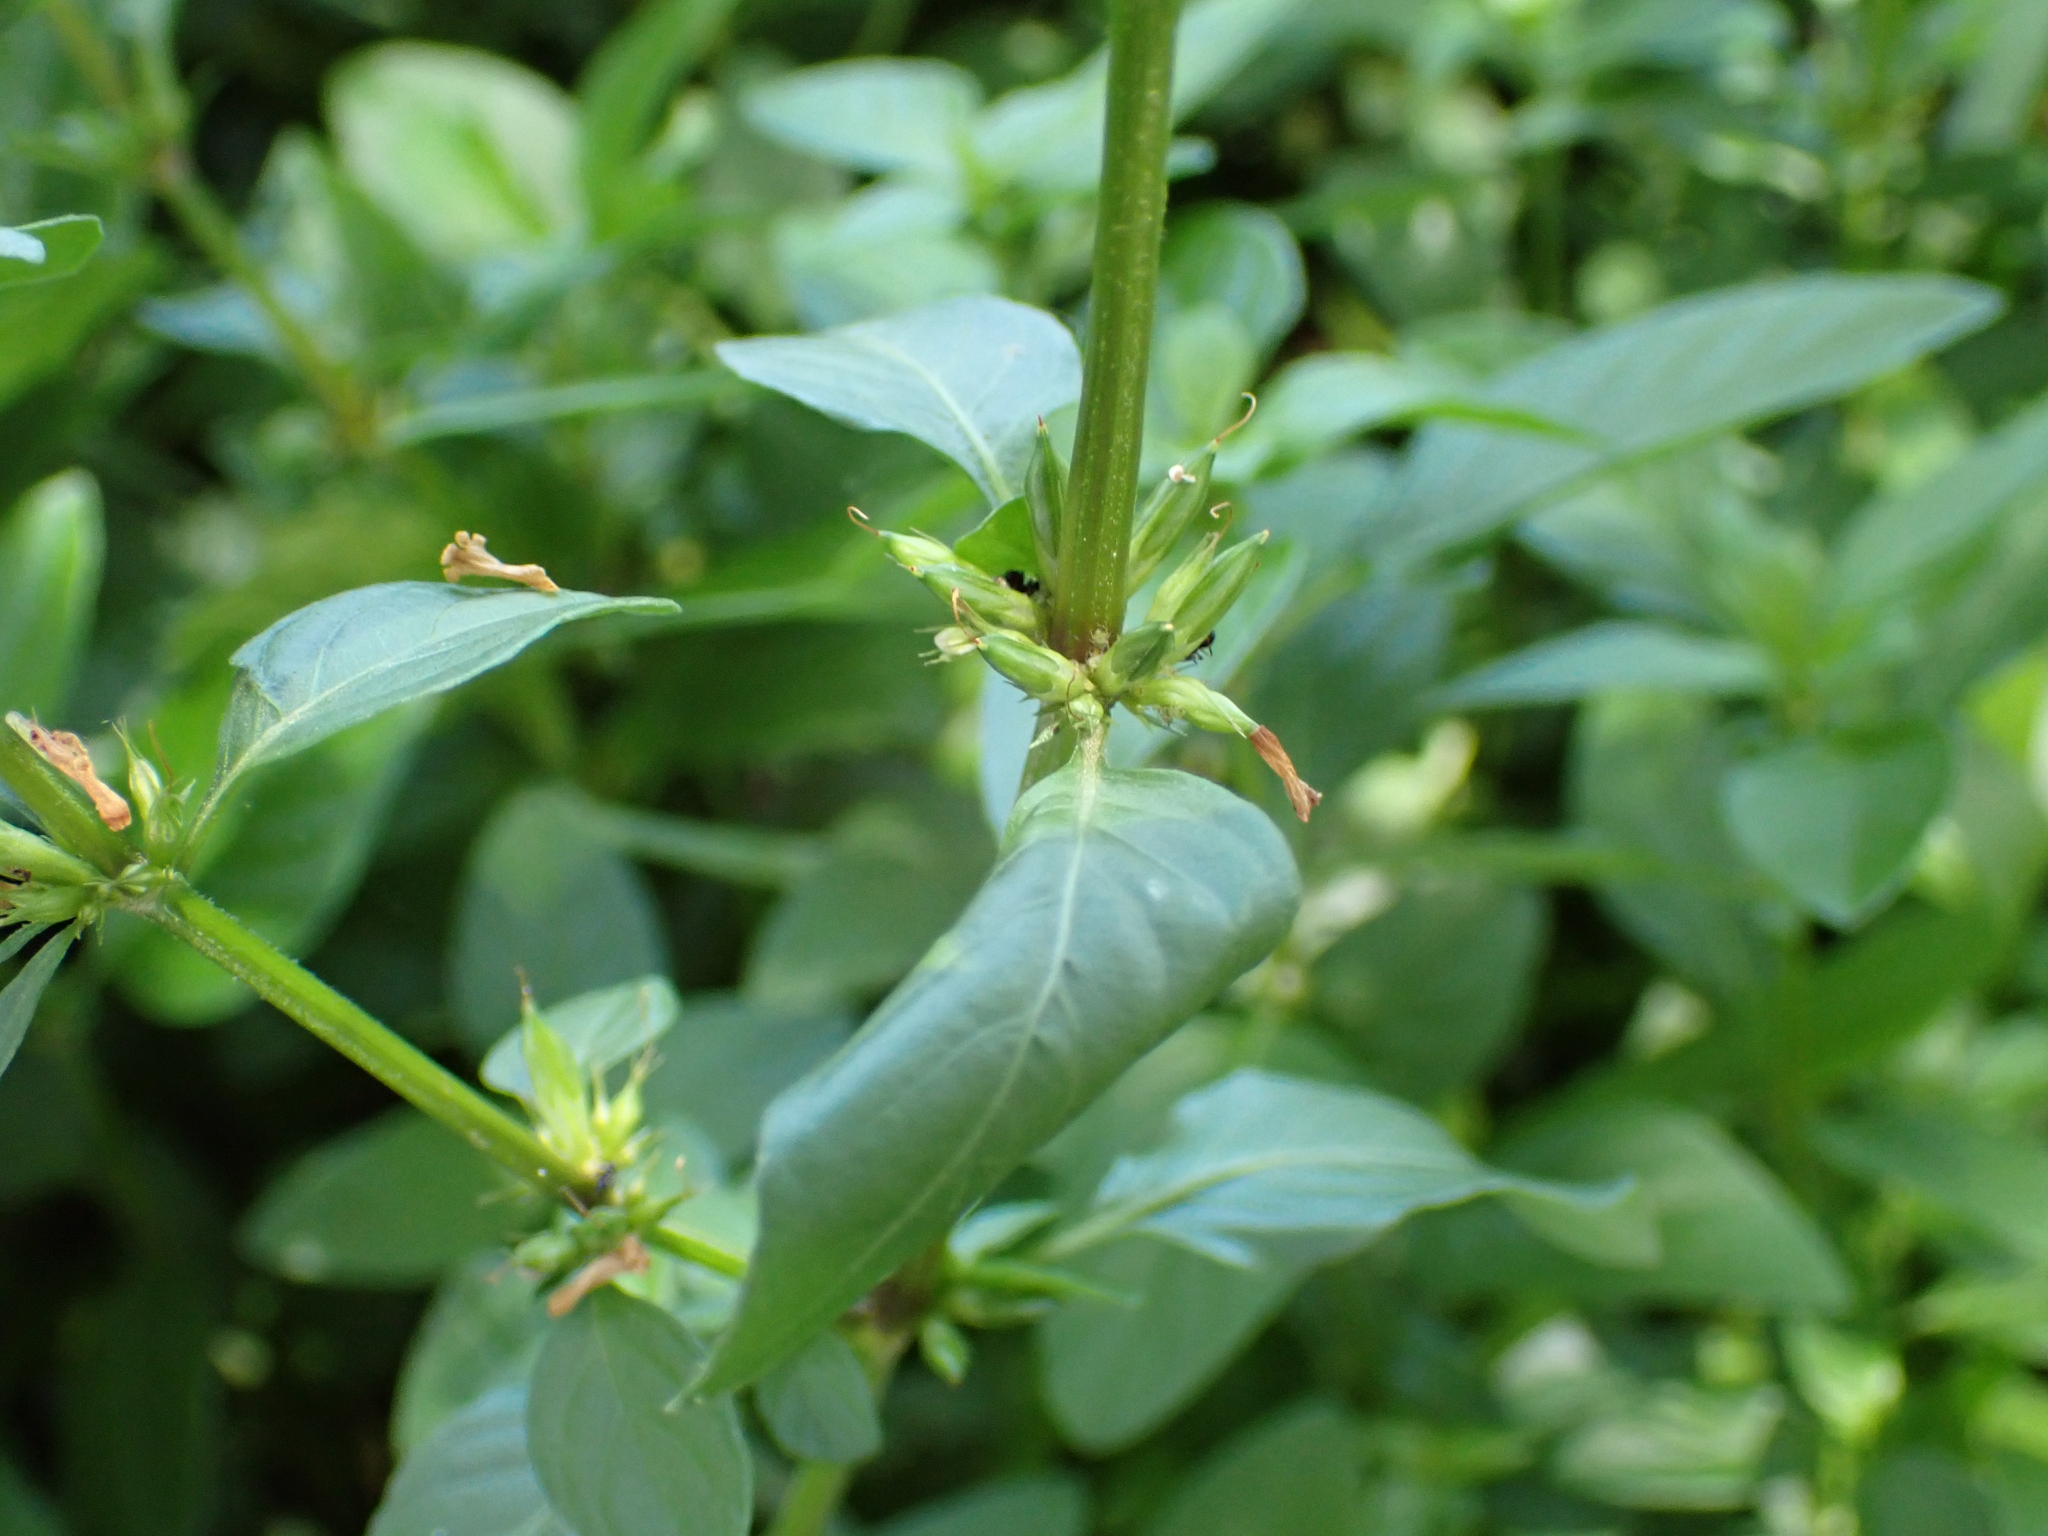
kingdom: Plantae
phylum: Tracheophyta
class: Magnoliopsida
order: Lamiales
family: Acanthaceae
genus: Hygrophila
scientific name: Hygrophila erecta
